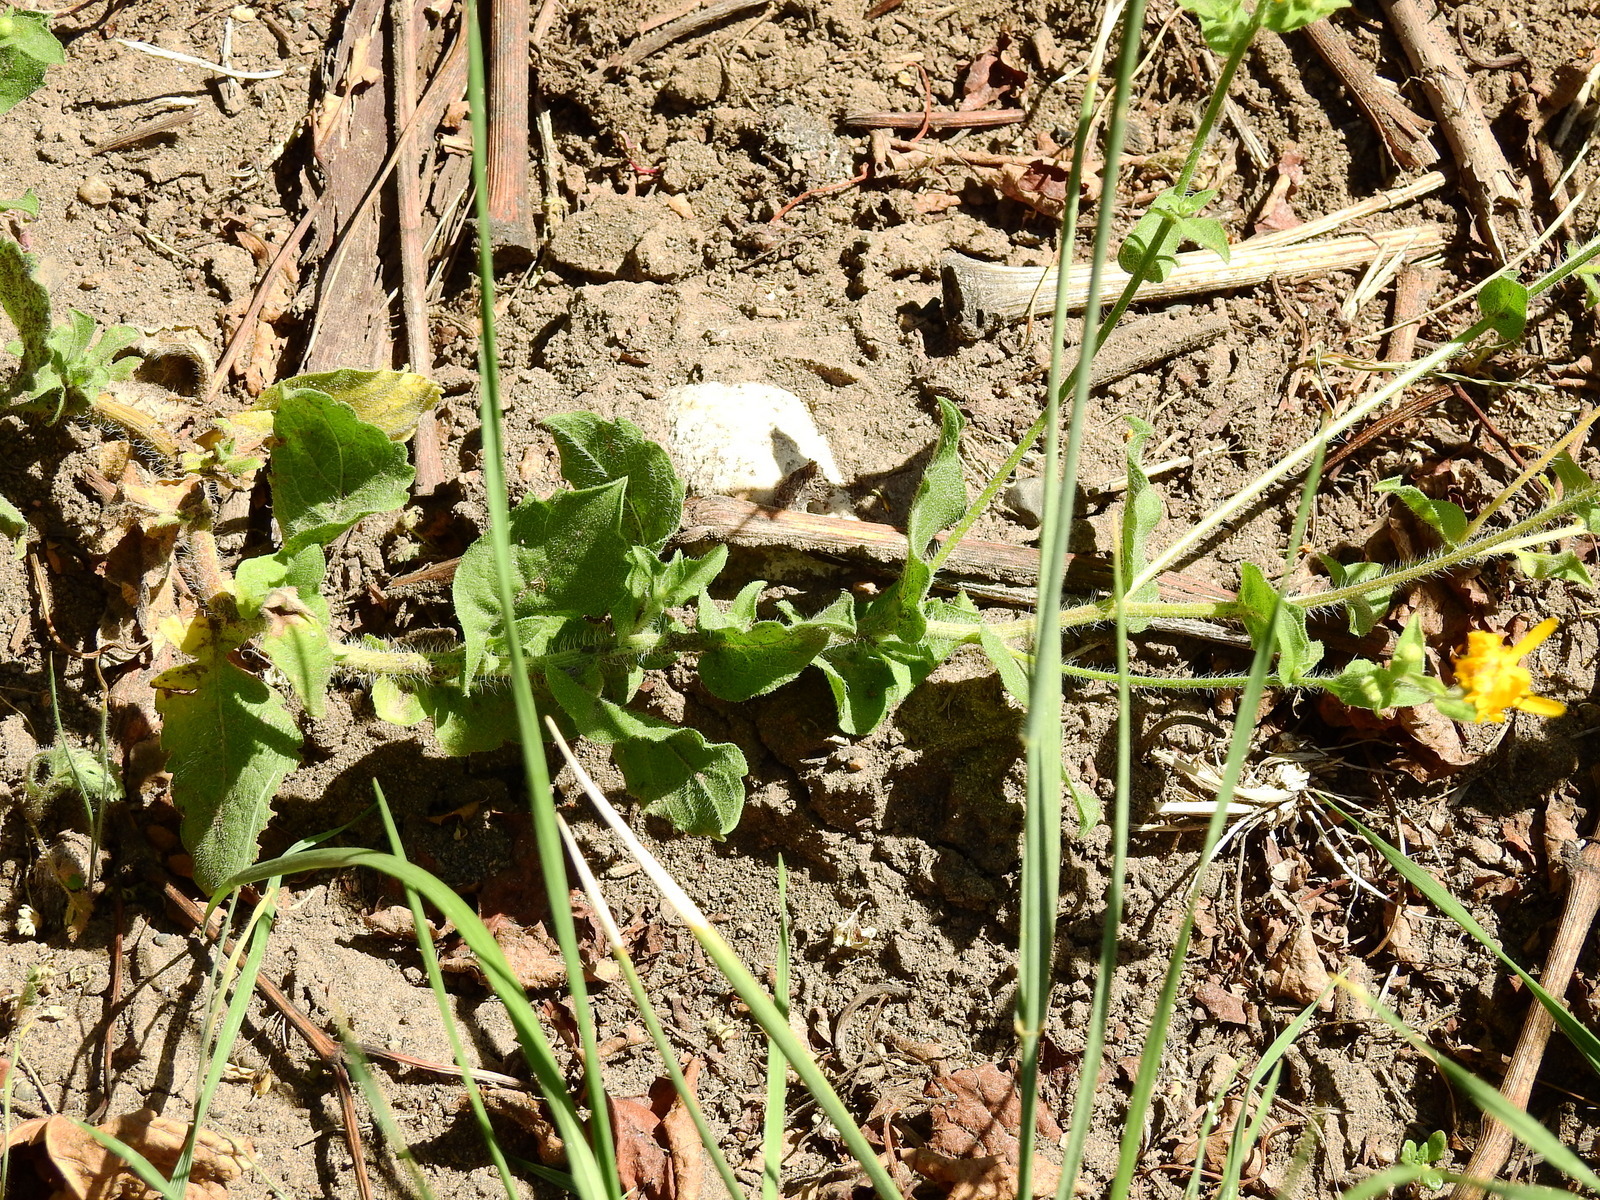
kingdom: Plantae
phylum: Tracheophyta
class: Magnoliopsida
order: Asterales
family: Asteraceae
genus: Heterotheca
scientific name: Heterotheca subaxillaris
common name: Camphorweed
